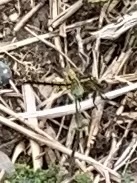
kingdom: Animalia
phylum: Arthropoda
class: Insecta
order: Odonata
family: Libellulidae
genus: Orthetrum
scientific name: Orthetrum cancellatum
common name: Black-tailed skimmer
